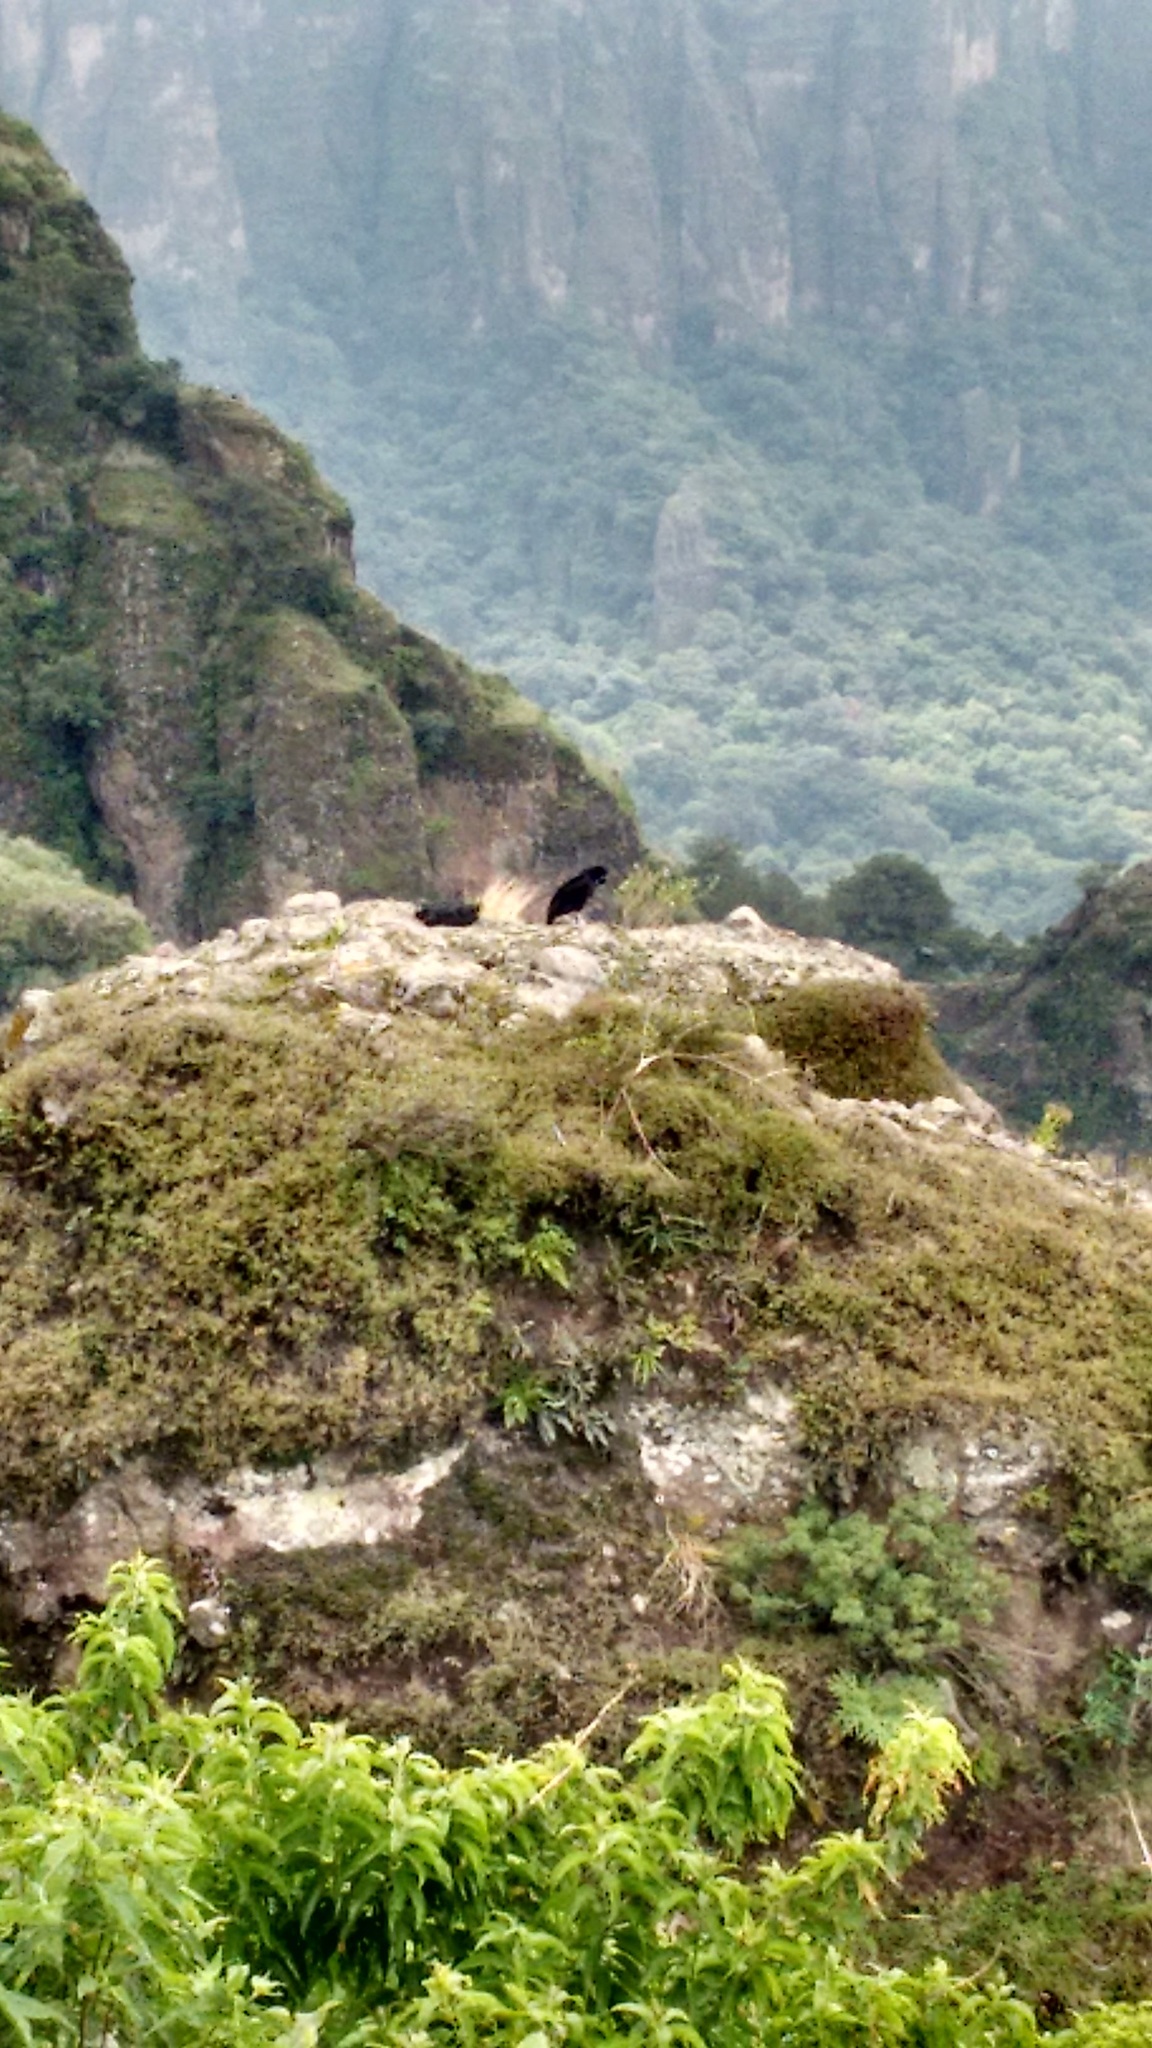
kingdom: Animalia
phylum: Chordata
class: Aves
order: Accipitriformes
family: Cathartidae
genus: Coragyps
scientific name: Coragyps atratus
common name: Black vulture
